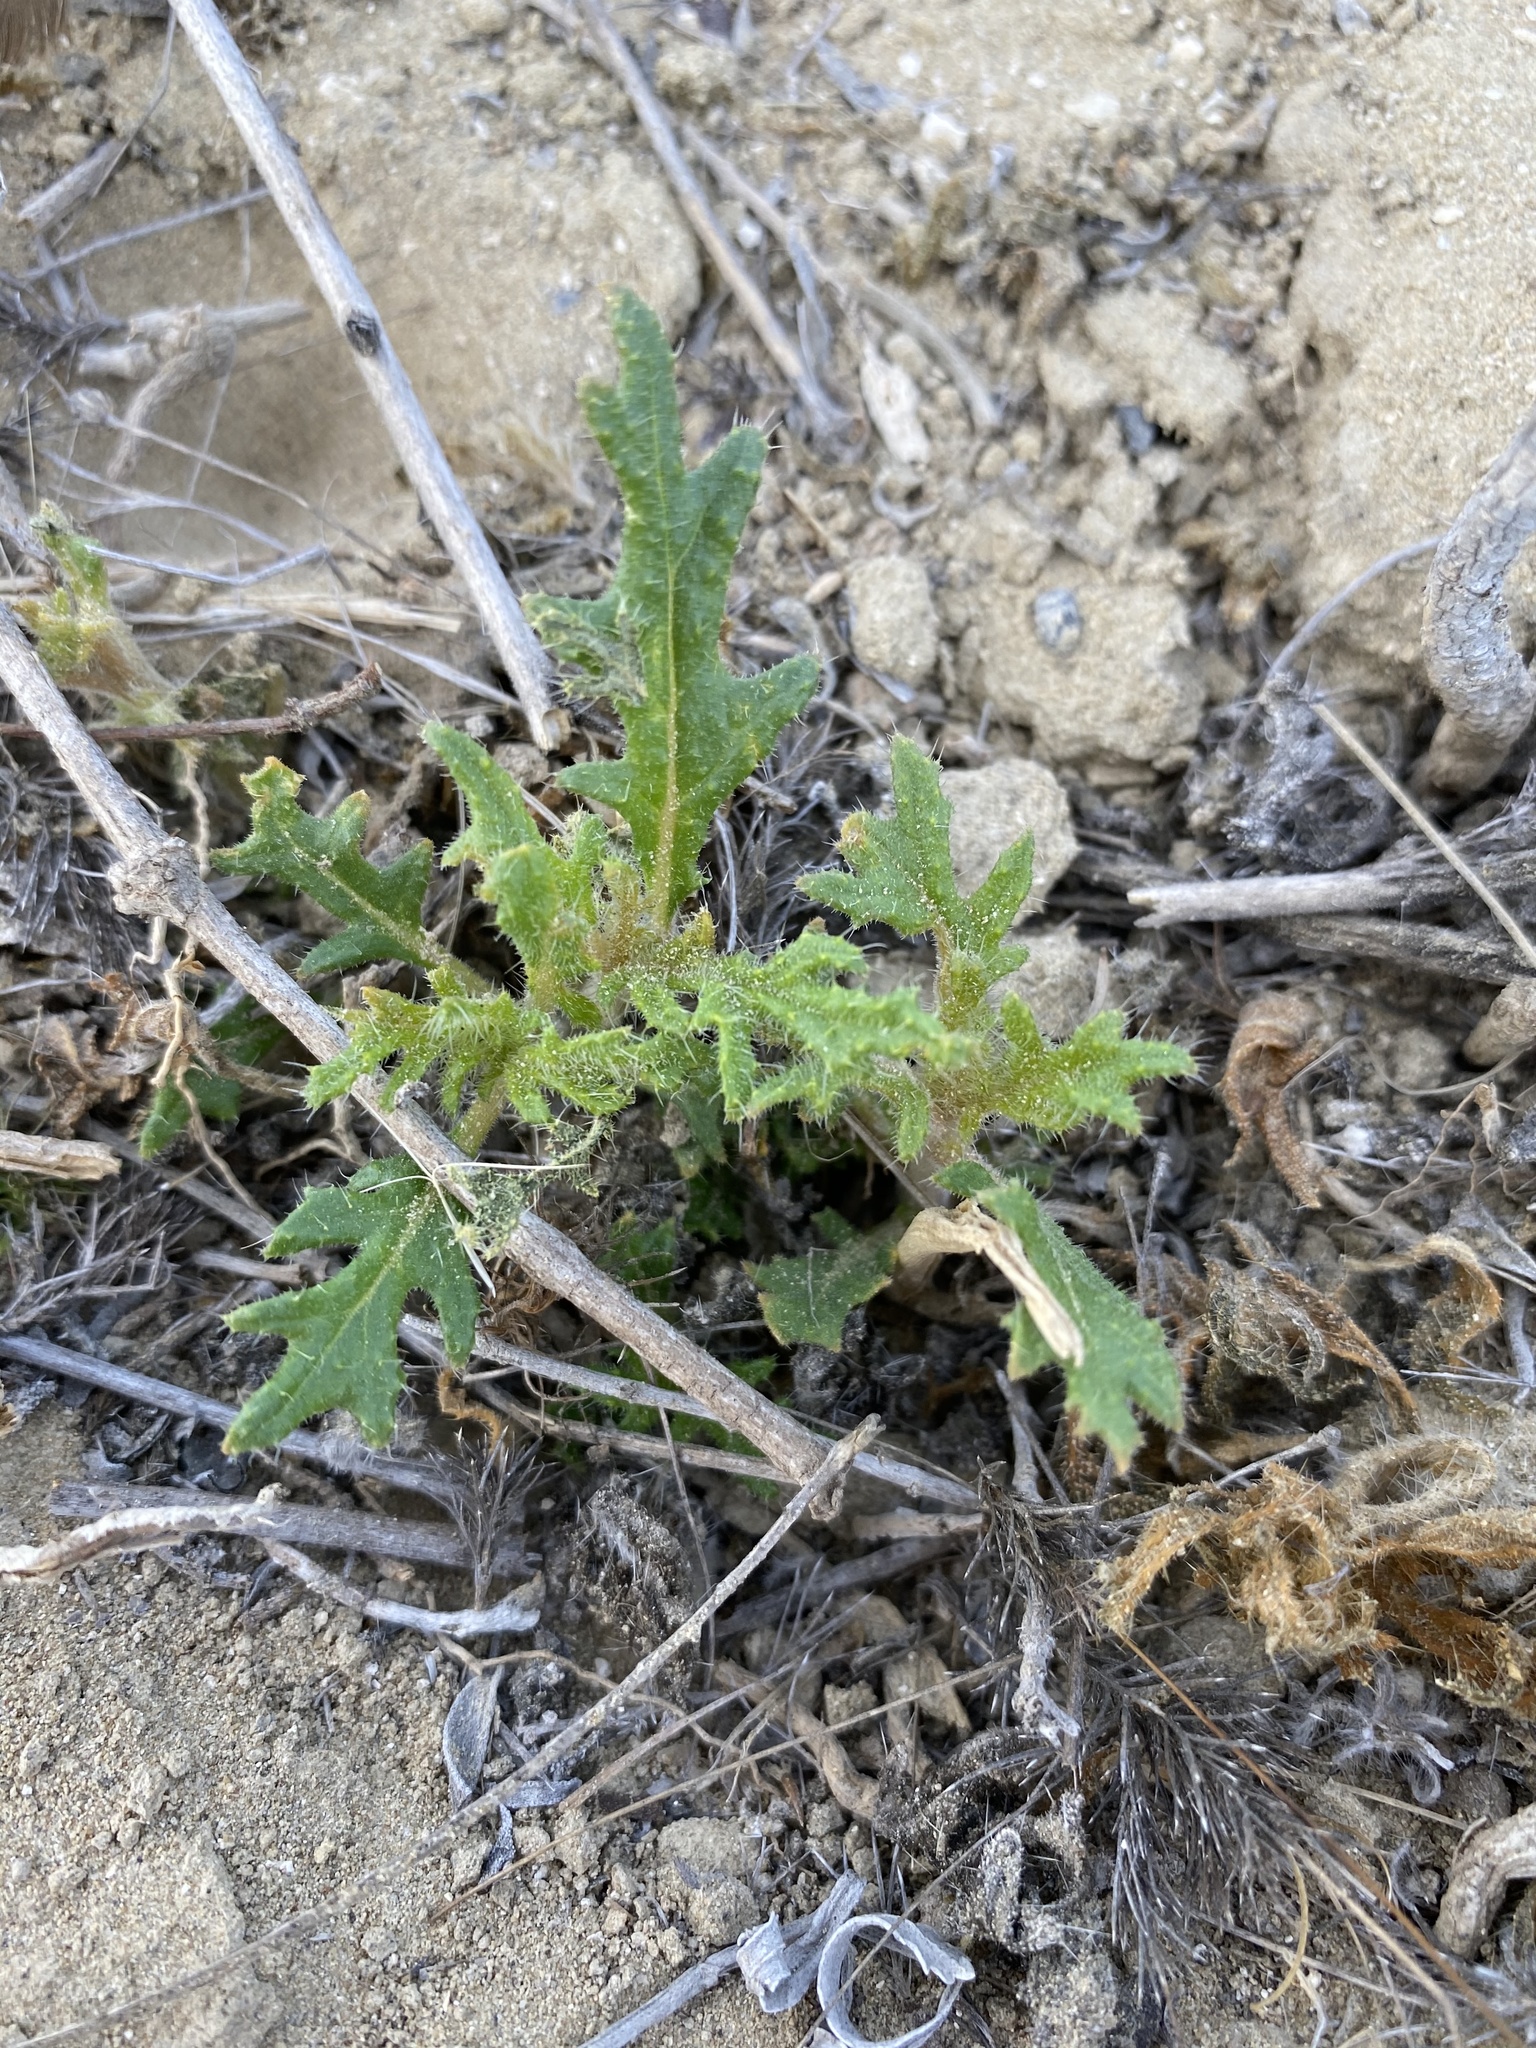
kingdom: Plantae
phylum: Tracheophyta
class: Magnoliopsida
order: Cornales
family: Loasaceae
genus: Cevallia
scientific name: Cevallia sinuata
